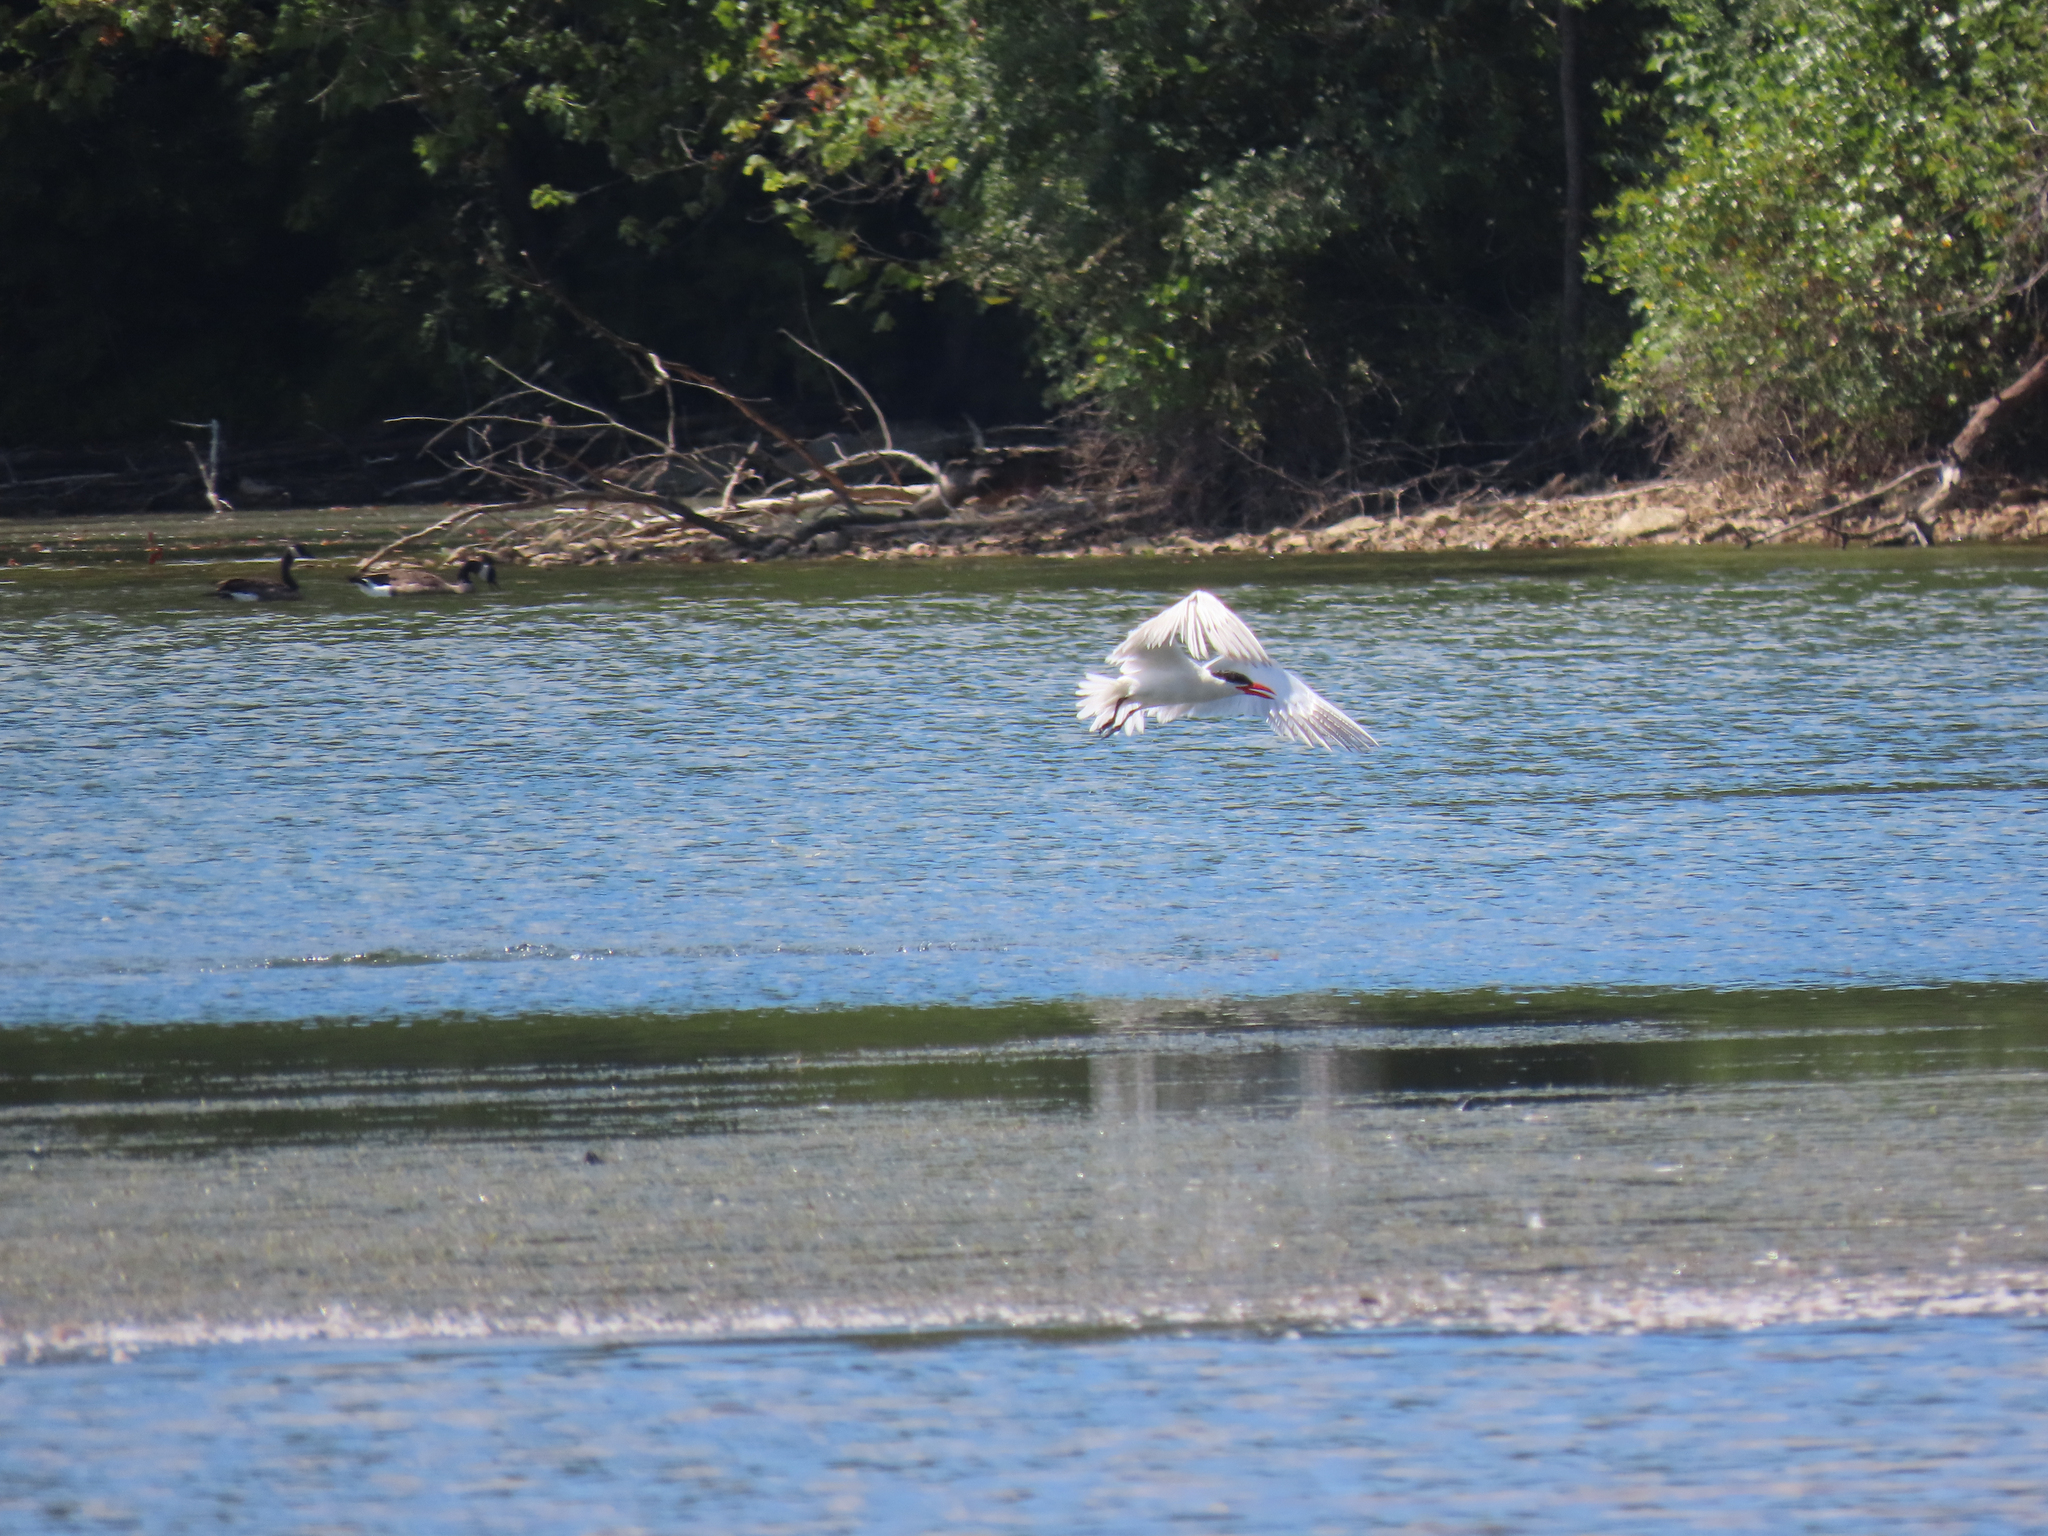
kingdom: Animalia
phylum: Chordata
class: Aves
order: Charadriiformes
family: Laridae
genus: Hydroprogne
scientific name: Hydroprogne caspia
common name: Caspian tern
